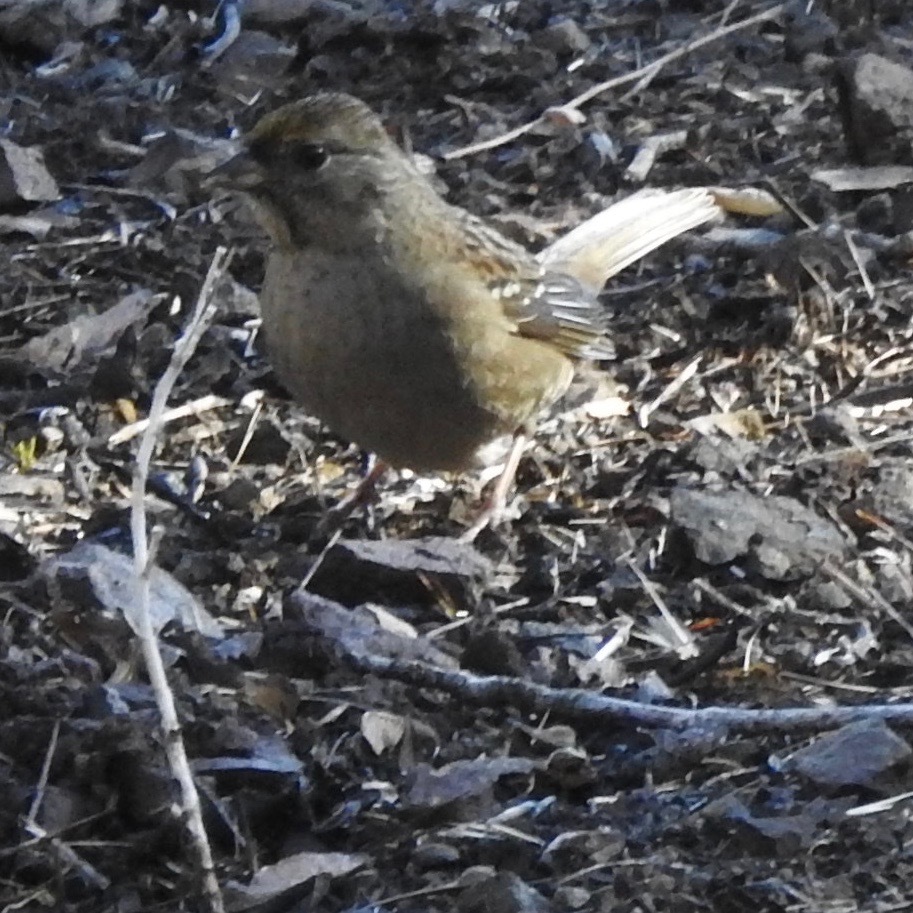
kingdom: Animalia
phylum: Chordata
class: Aves
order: Passeriformes
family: Passerellidae
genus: Zonotrichia
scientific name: Zonotrichia atricapilla
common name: Golden-crowned sparrow
